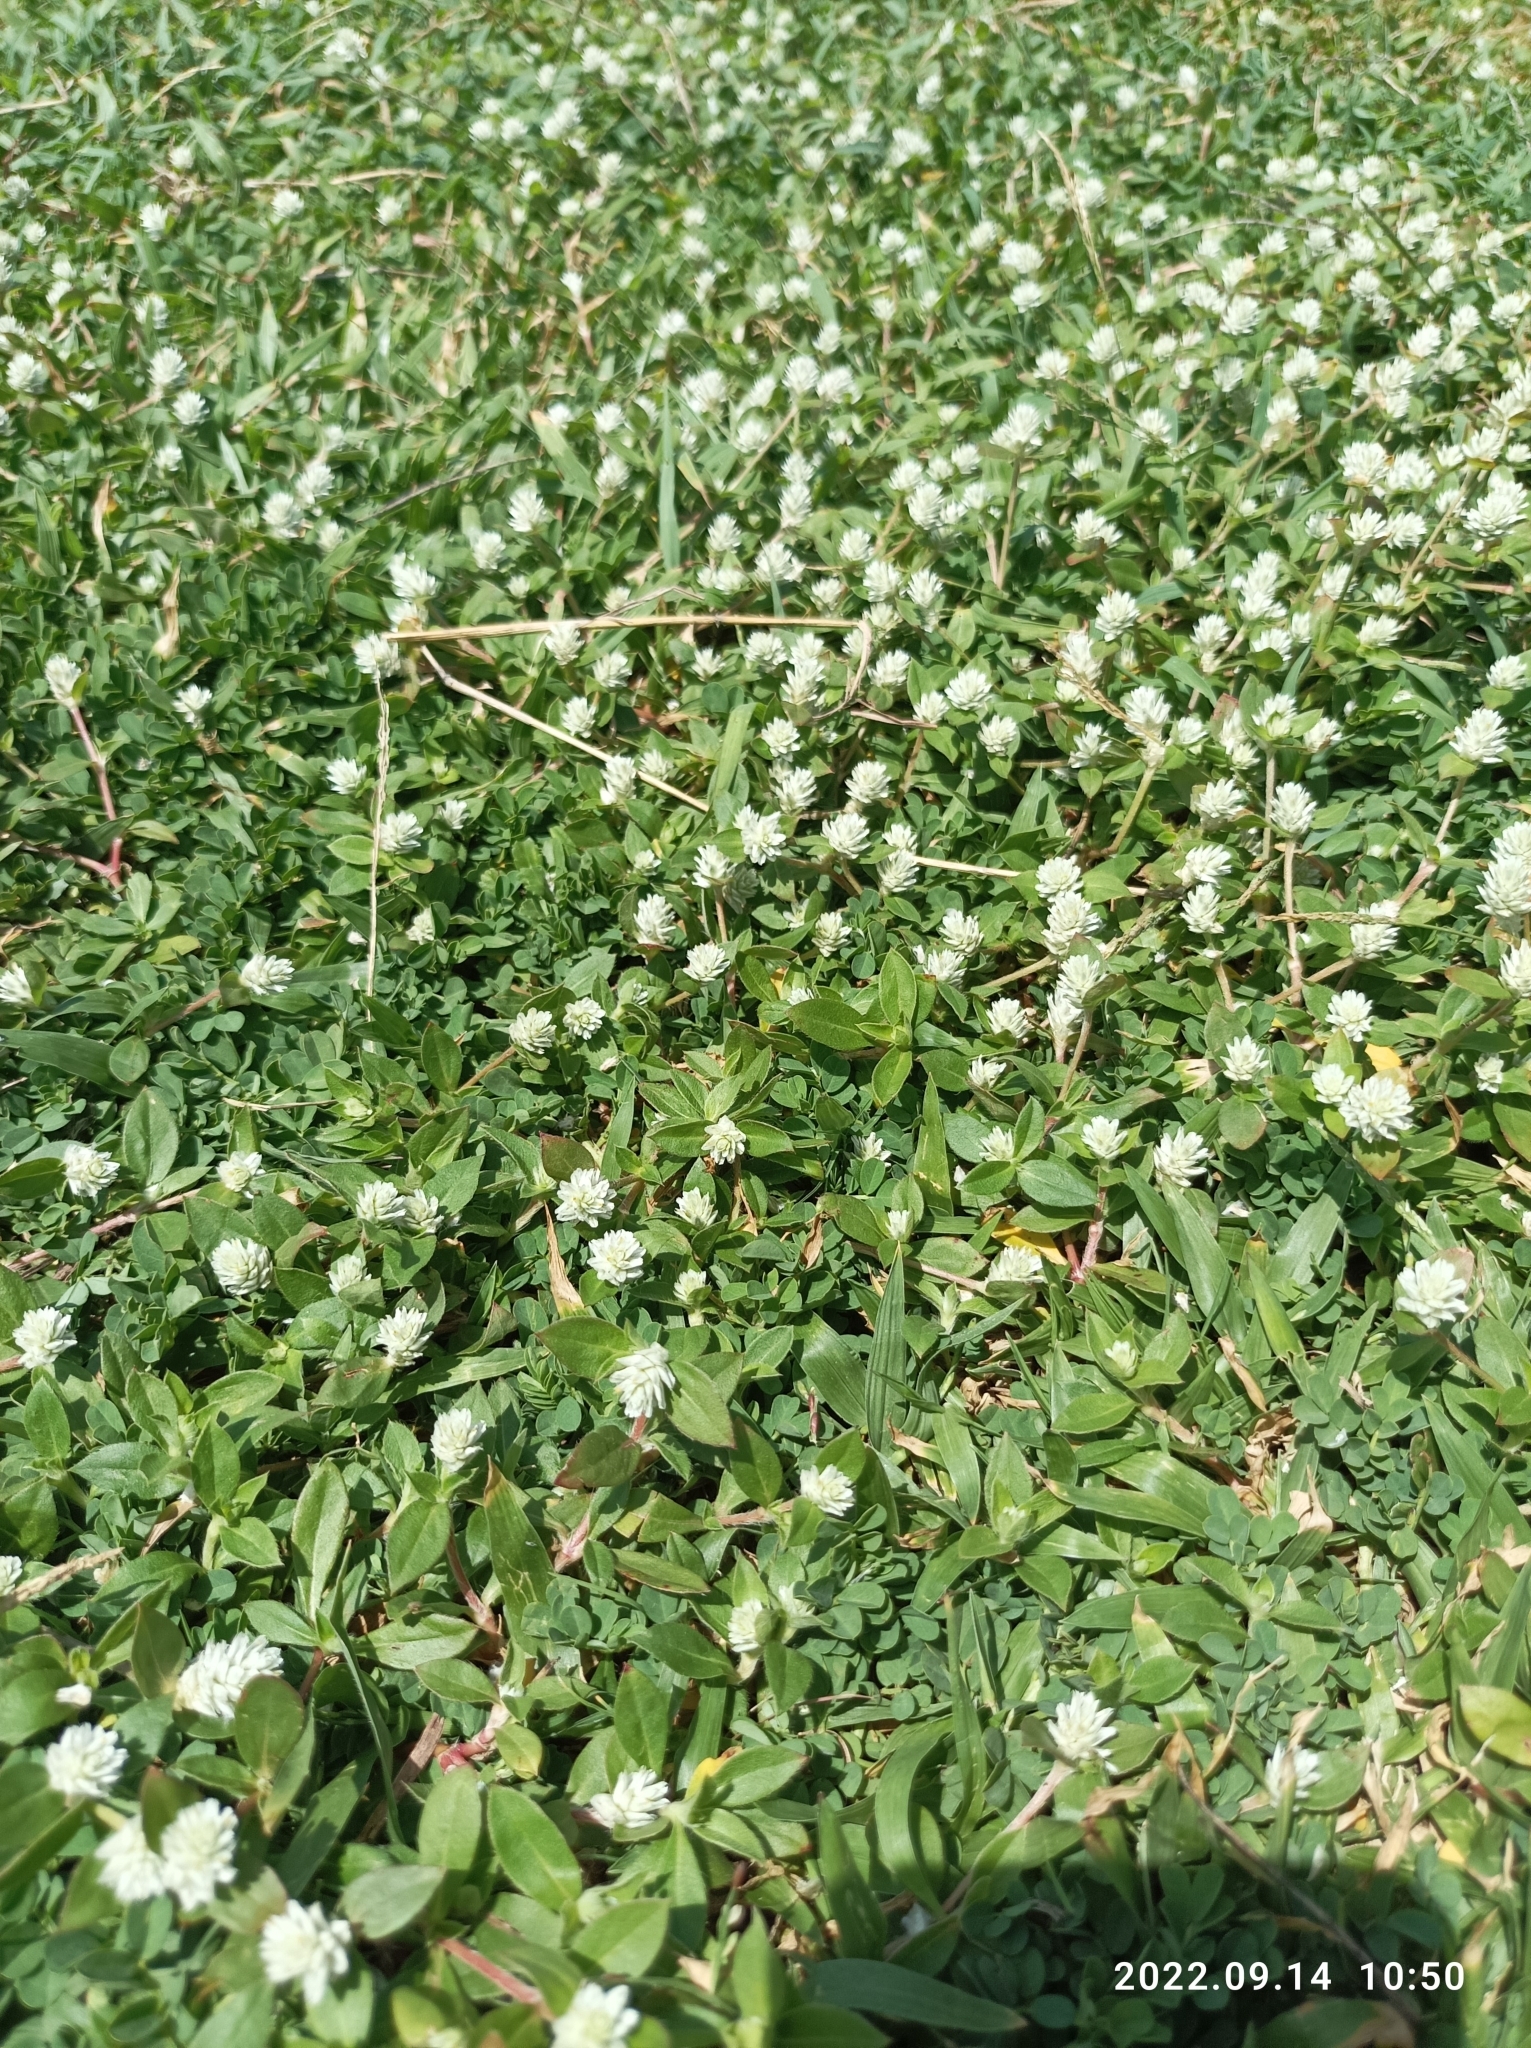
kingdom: Plantae
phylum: Tracheophyta
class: Magnoliopsida
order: Caryophyllales
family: Amaranthaceae
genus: Gomphrena
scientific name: Gomphrena serrata
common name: Arrasa con todo
